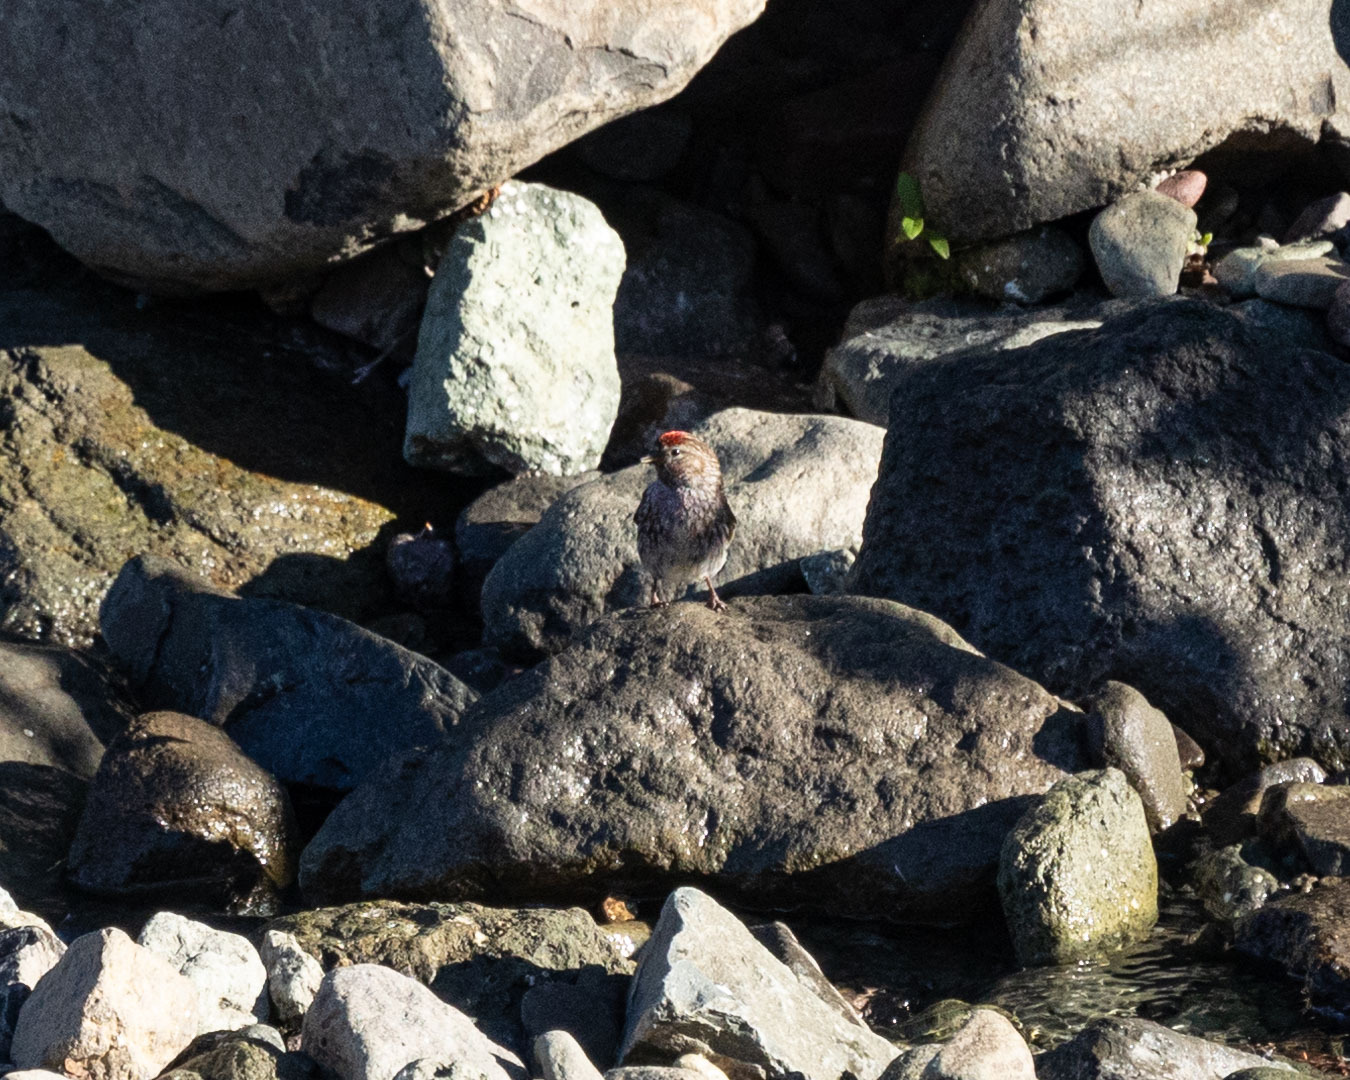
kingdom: Animalia
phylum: Chordata
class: Aves
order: Passeriformes
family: Fringillidae
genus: Acanthis
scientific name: Acanthis flammea
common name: Common redpoll
